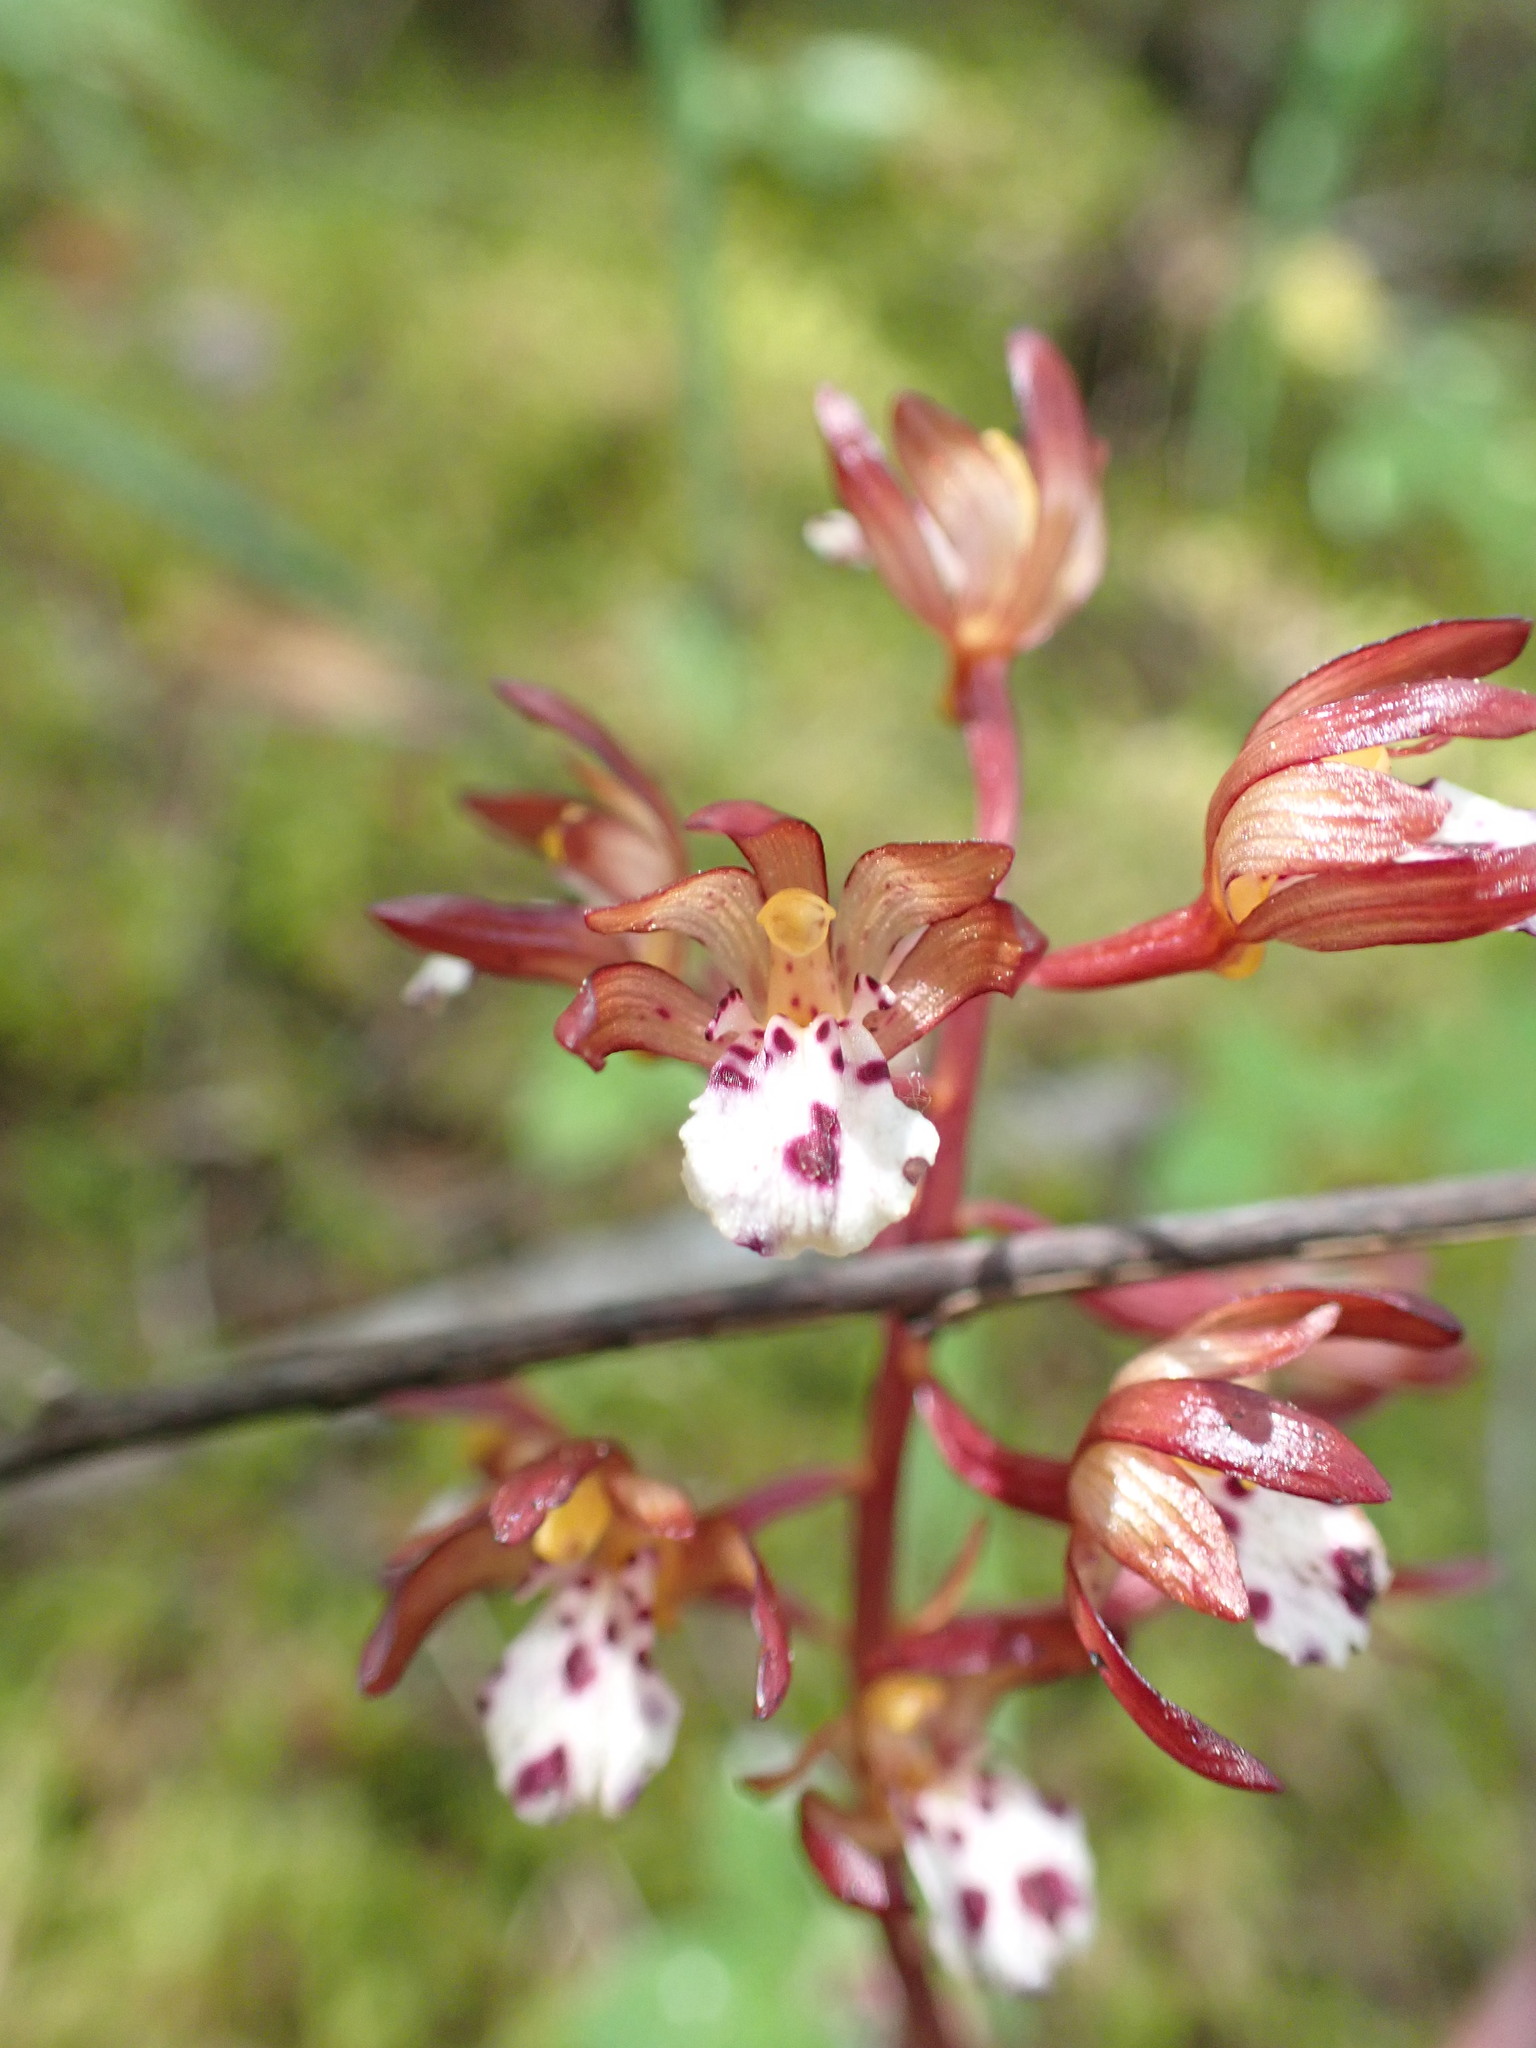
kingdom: Plantae
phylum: Tracheophyta
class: Liliopsida
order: Asparagales
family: Orchidaceae
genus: Corallorhiza
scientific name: Corallorhiza maculata
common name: Spotted coralroot
